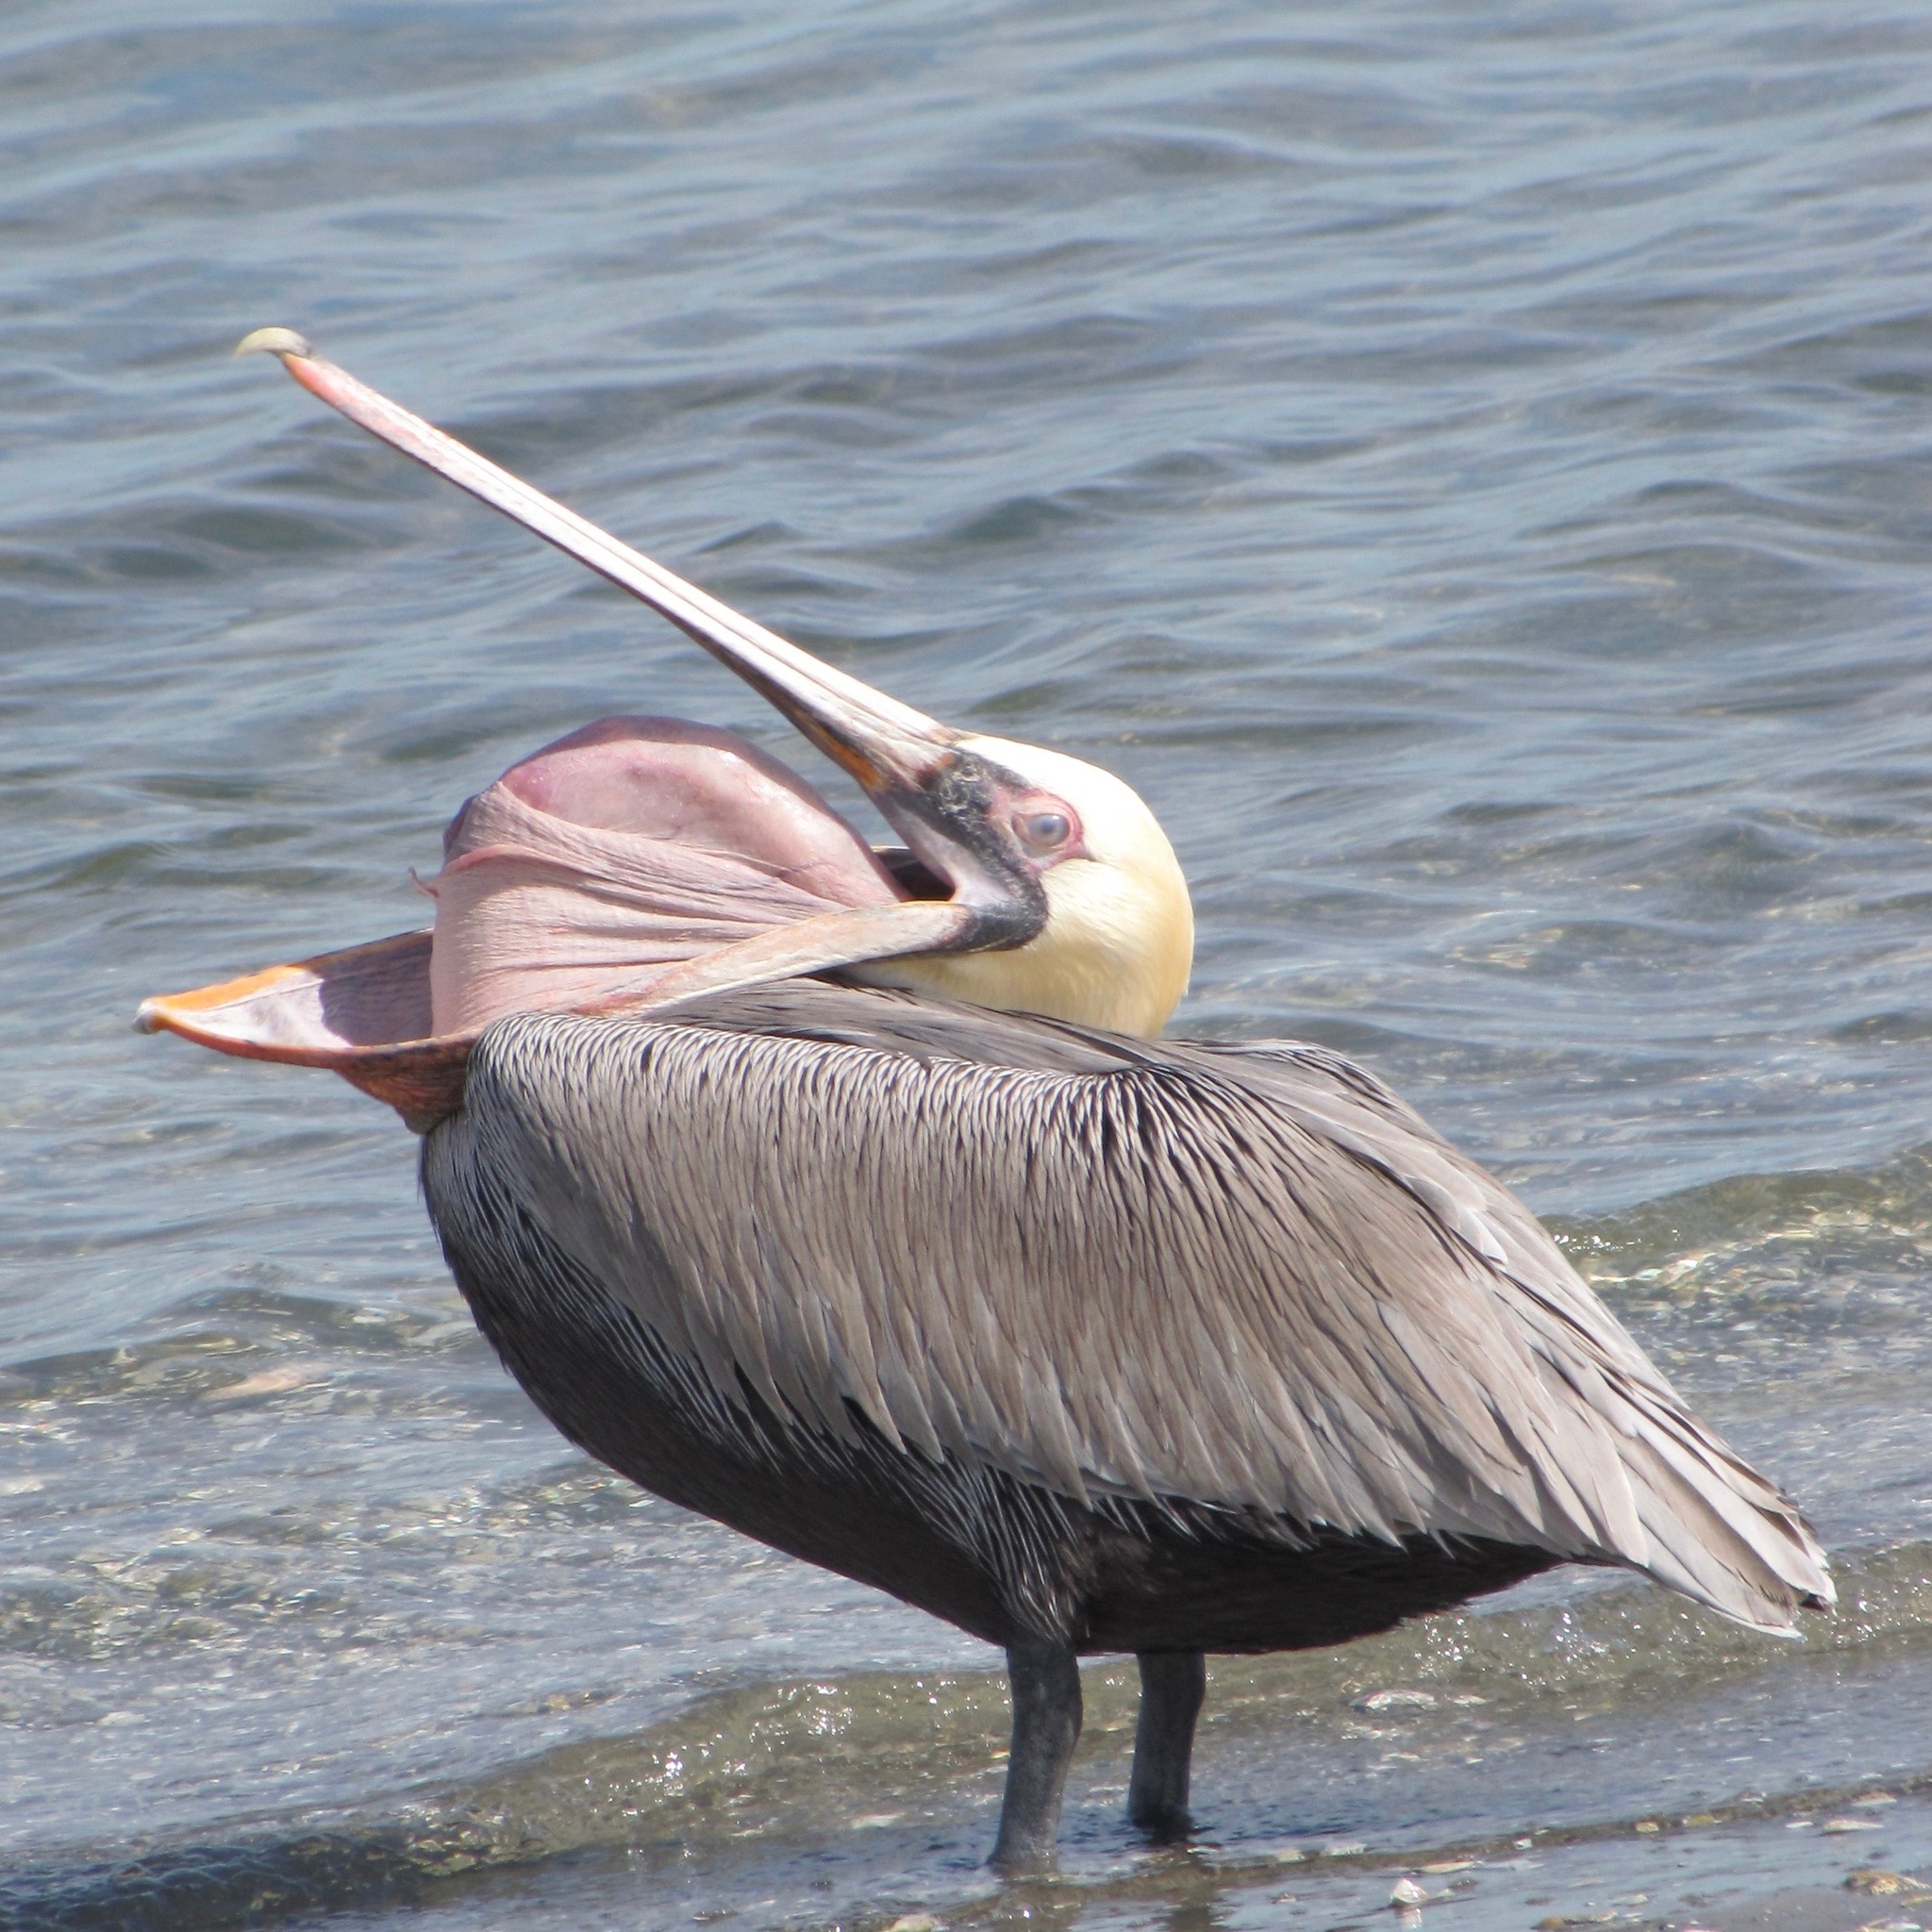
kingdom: Animalia
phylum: Chordata
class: Aves
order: Pelecaniformes
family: Pelecanidae
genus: Pelecanus
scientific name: Pelecanus occidentalis
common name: Brown pelican
